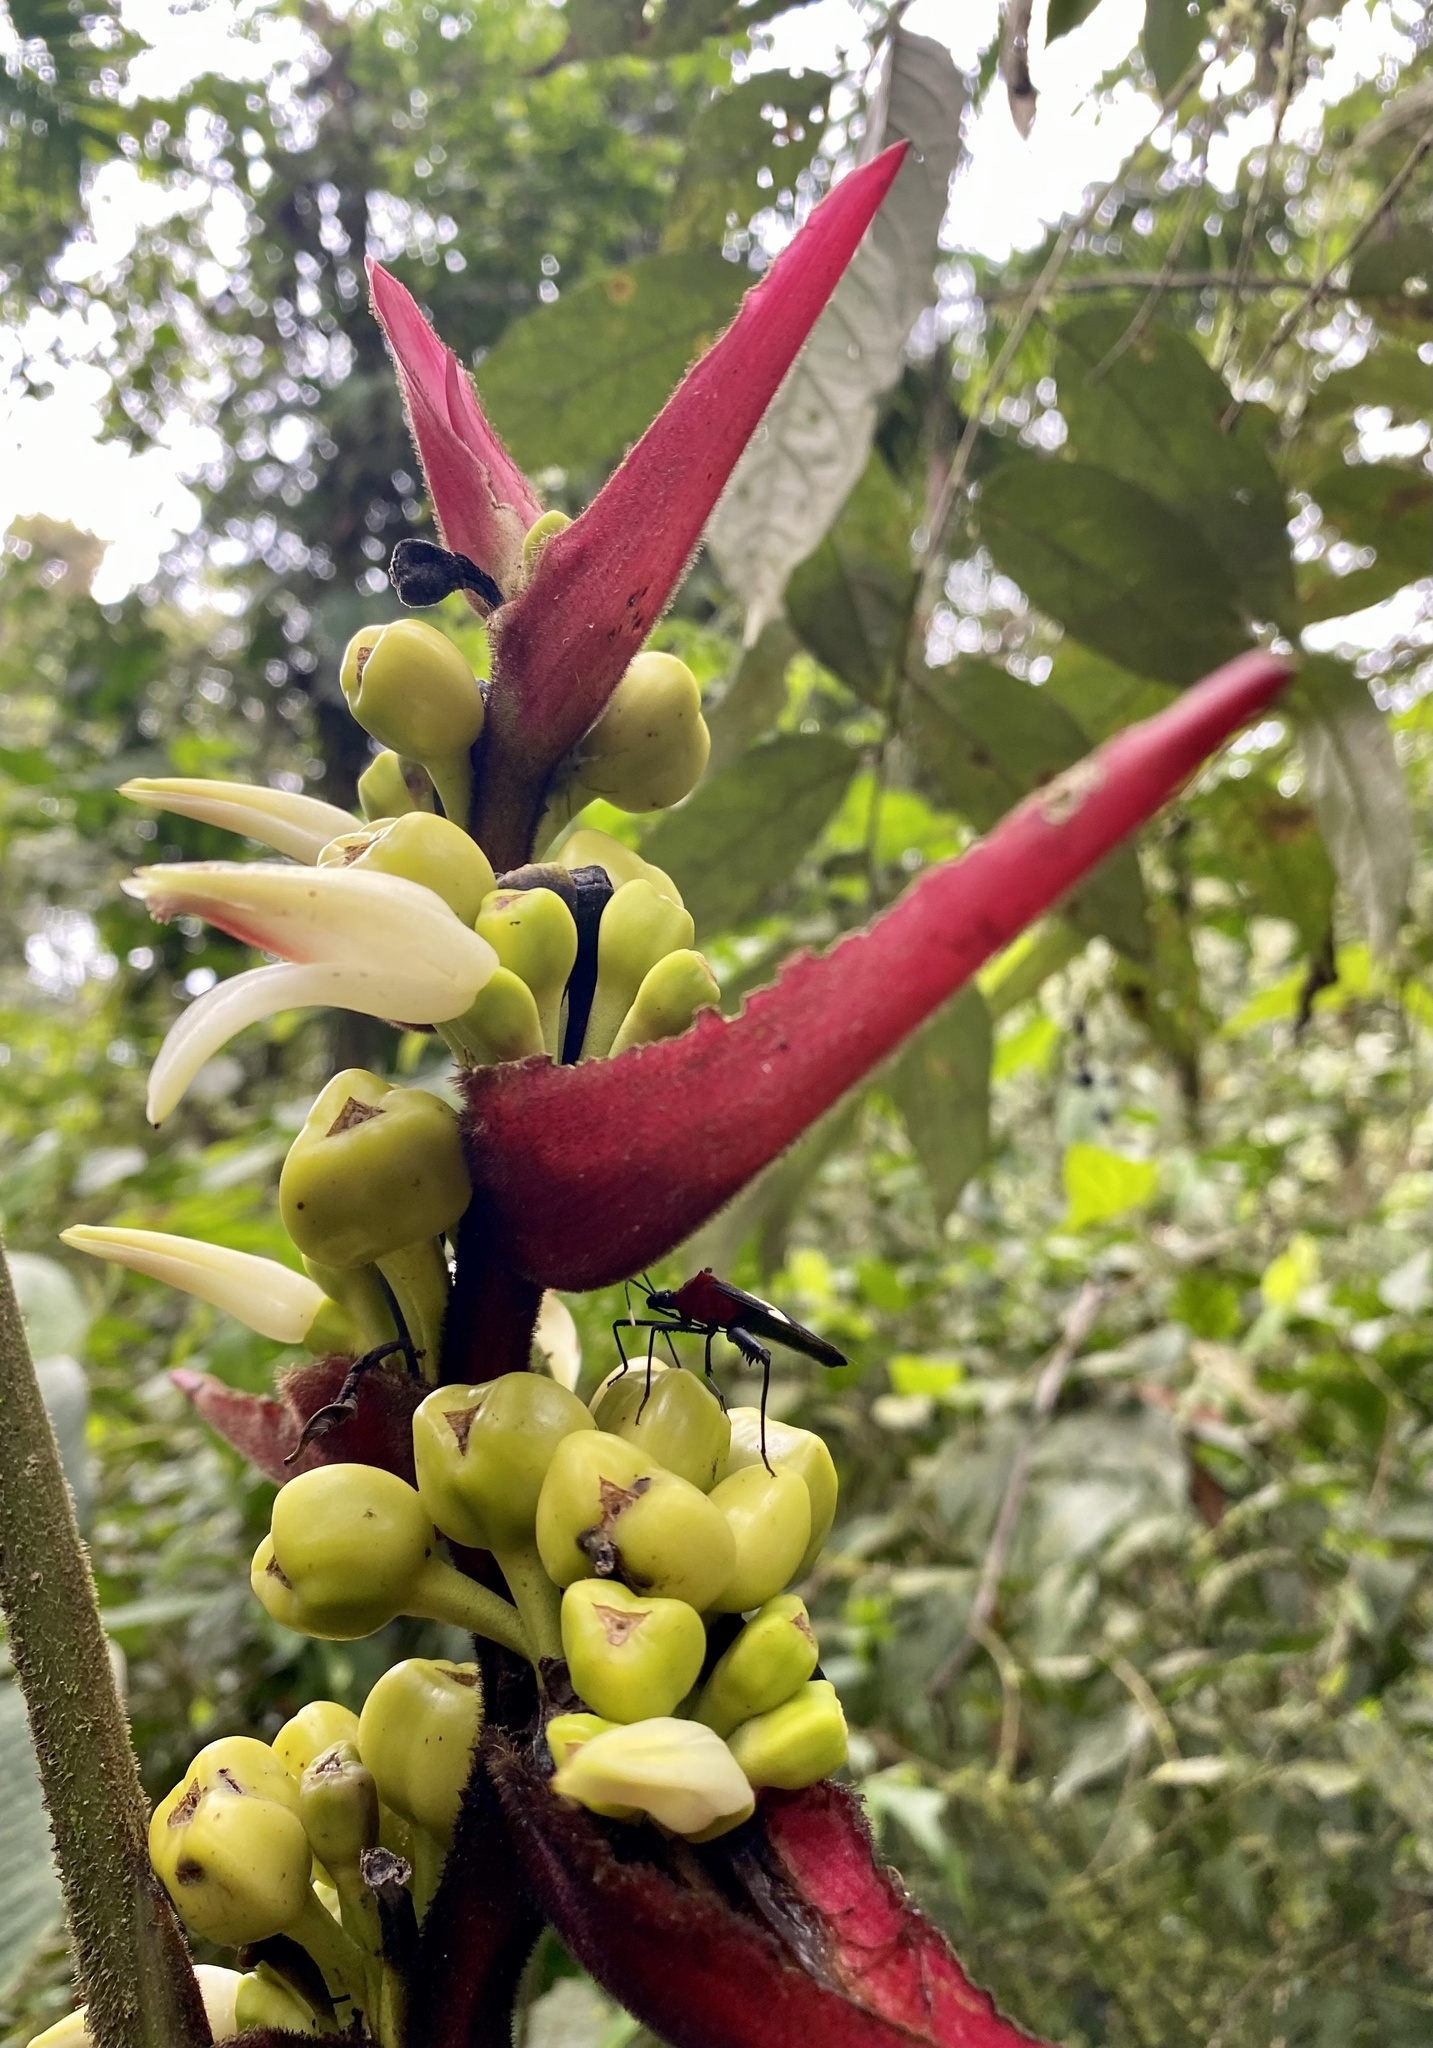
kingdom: Animalia
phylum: Arthropoda
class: Insecta
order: Hemiptera
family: Coreidae
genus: Leptoscelis
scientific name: Leptoscelis militaris
